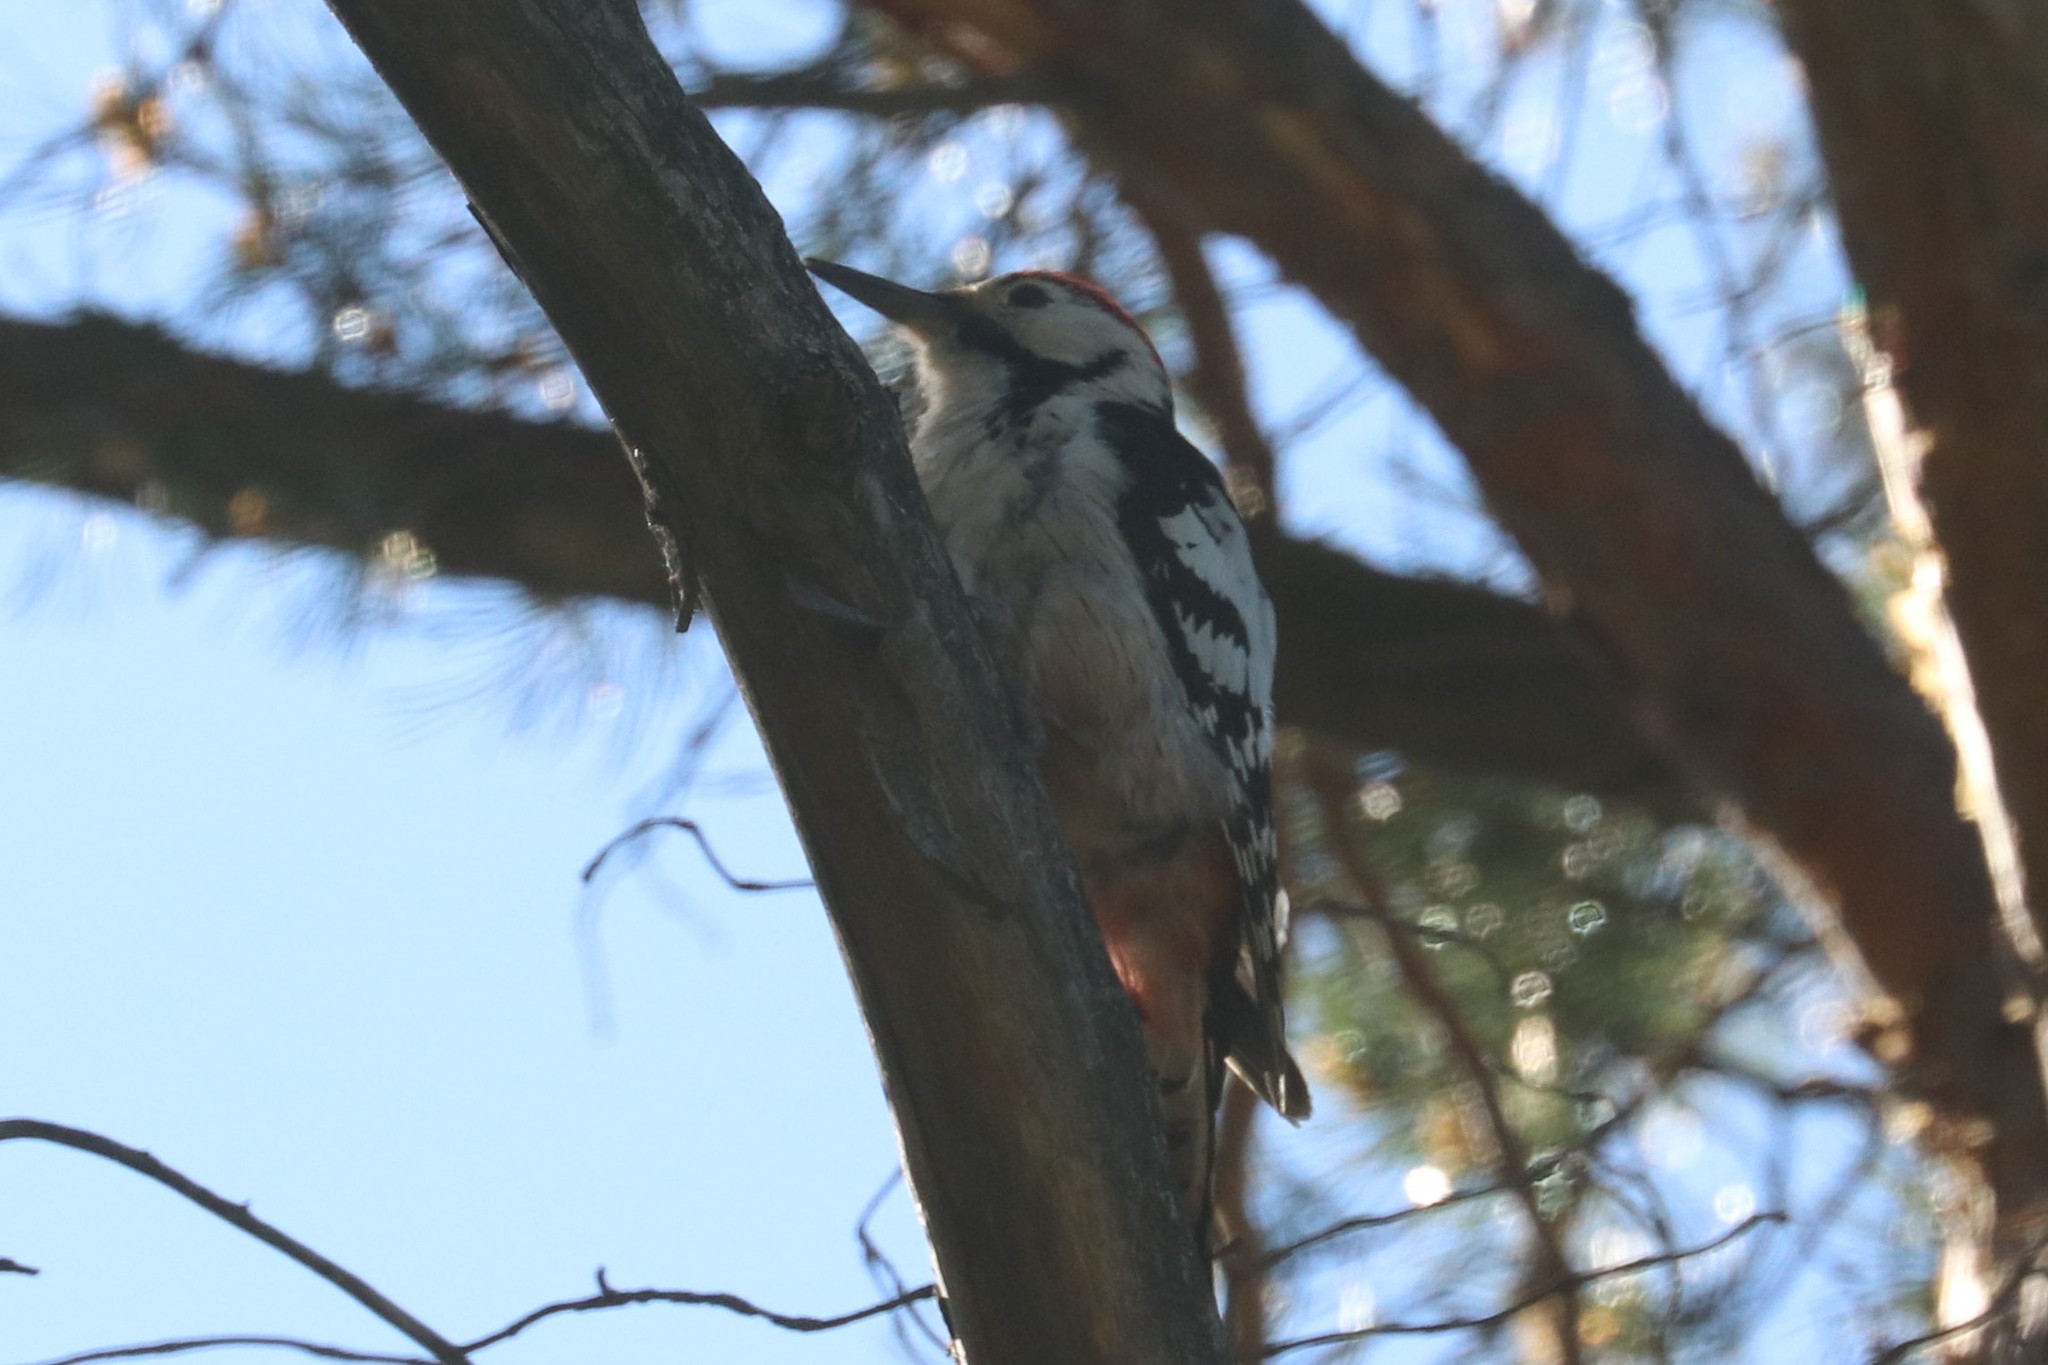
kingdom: Animalia
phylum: Chordata
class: Aves
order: Piciformes
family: Picidae
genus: Dendrocopos
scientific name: Dendrocopos leucotos
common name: White-backed woodpecker
